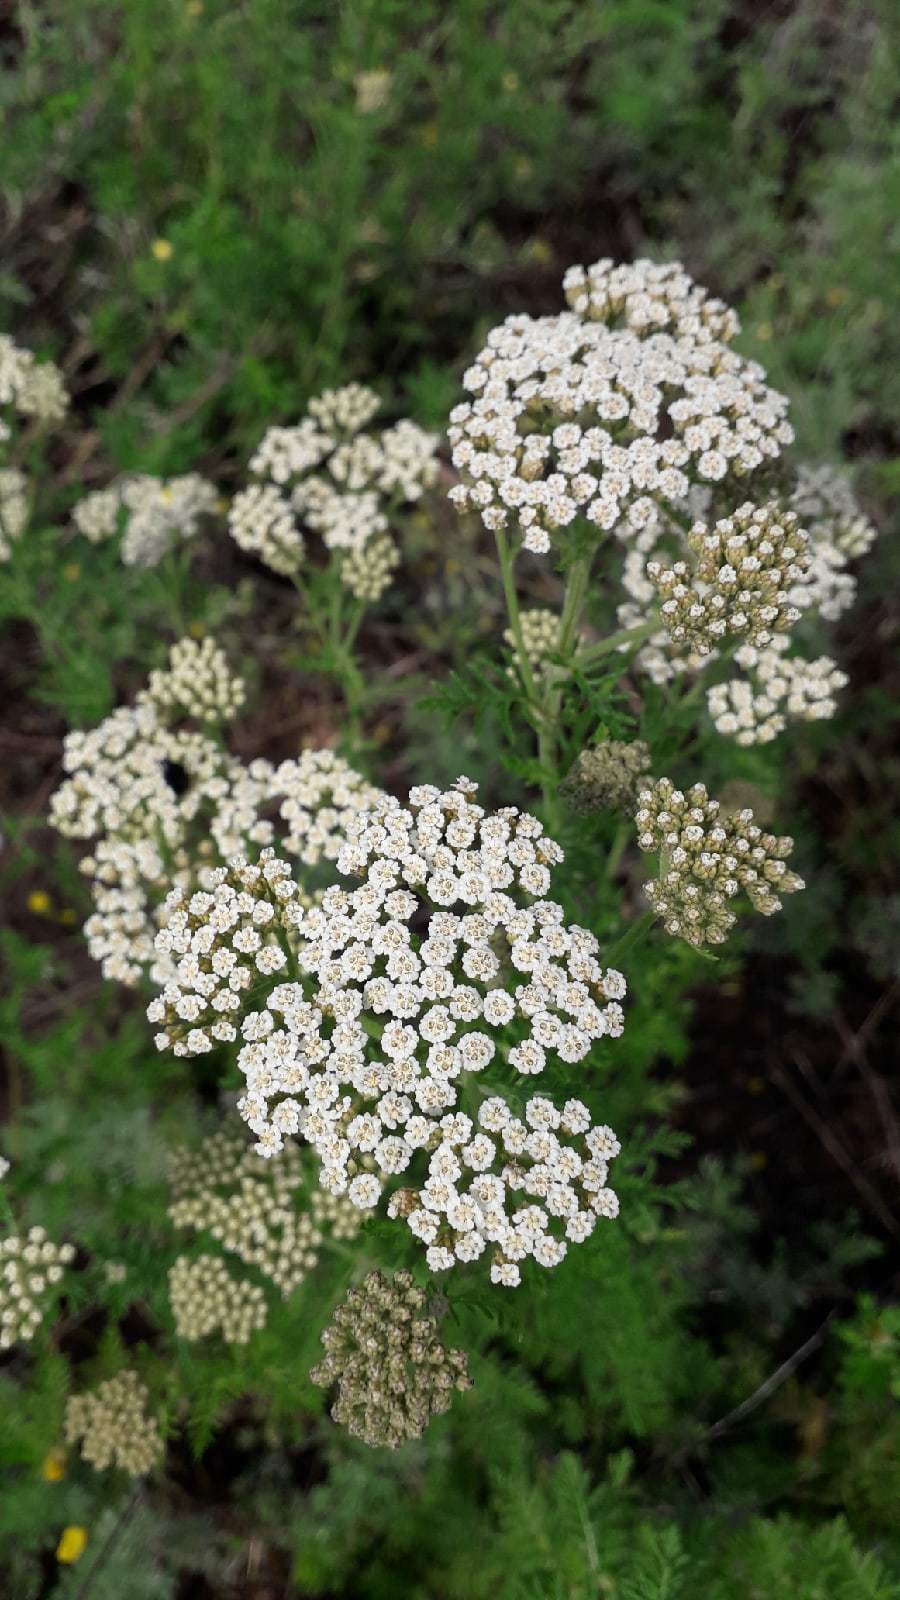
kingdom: Plantae
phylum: Tracheophyta
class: Magnoliopsida
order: Asterales
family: Asteraceae
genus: Achillea
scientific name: Achillea nobilis
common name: Noble yarrow
